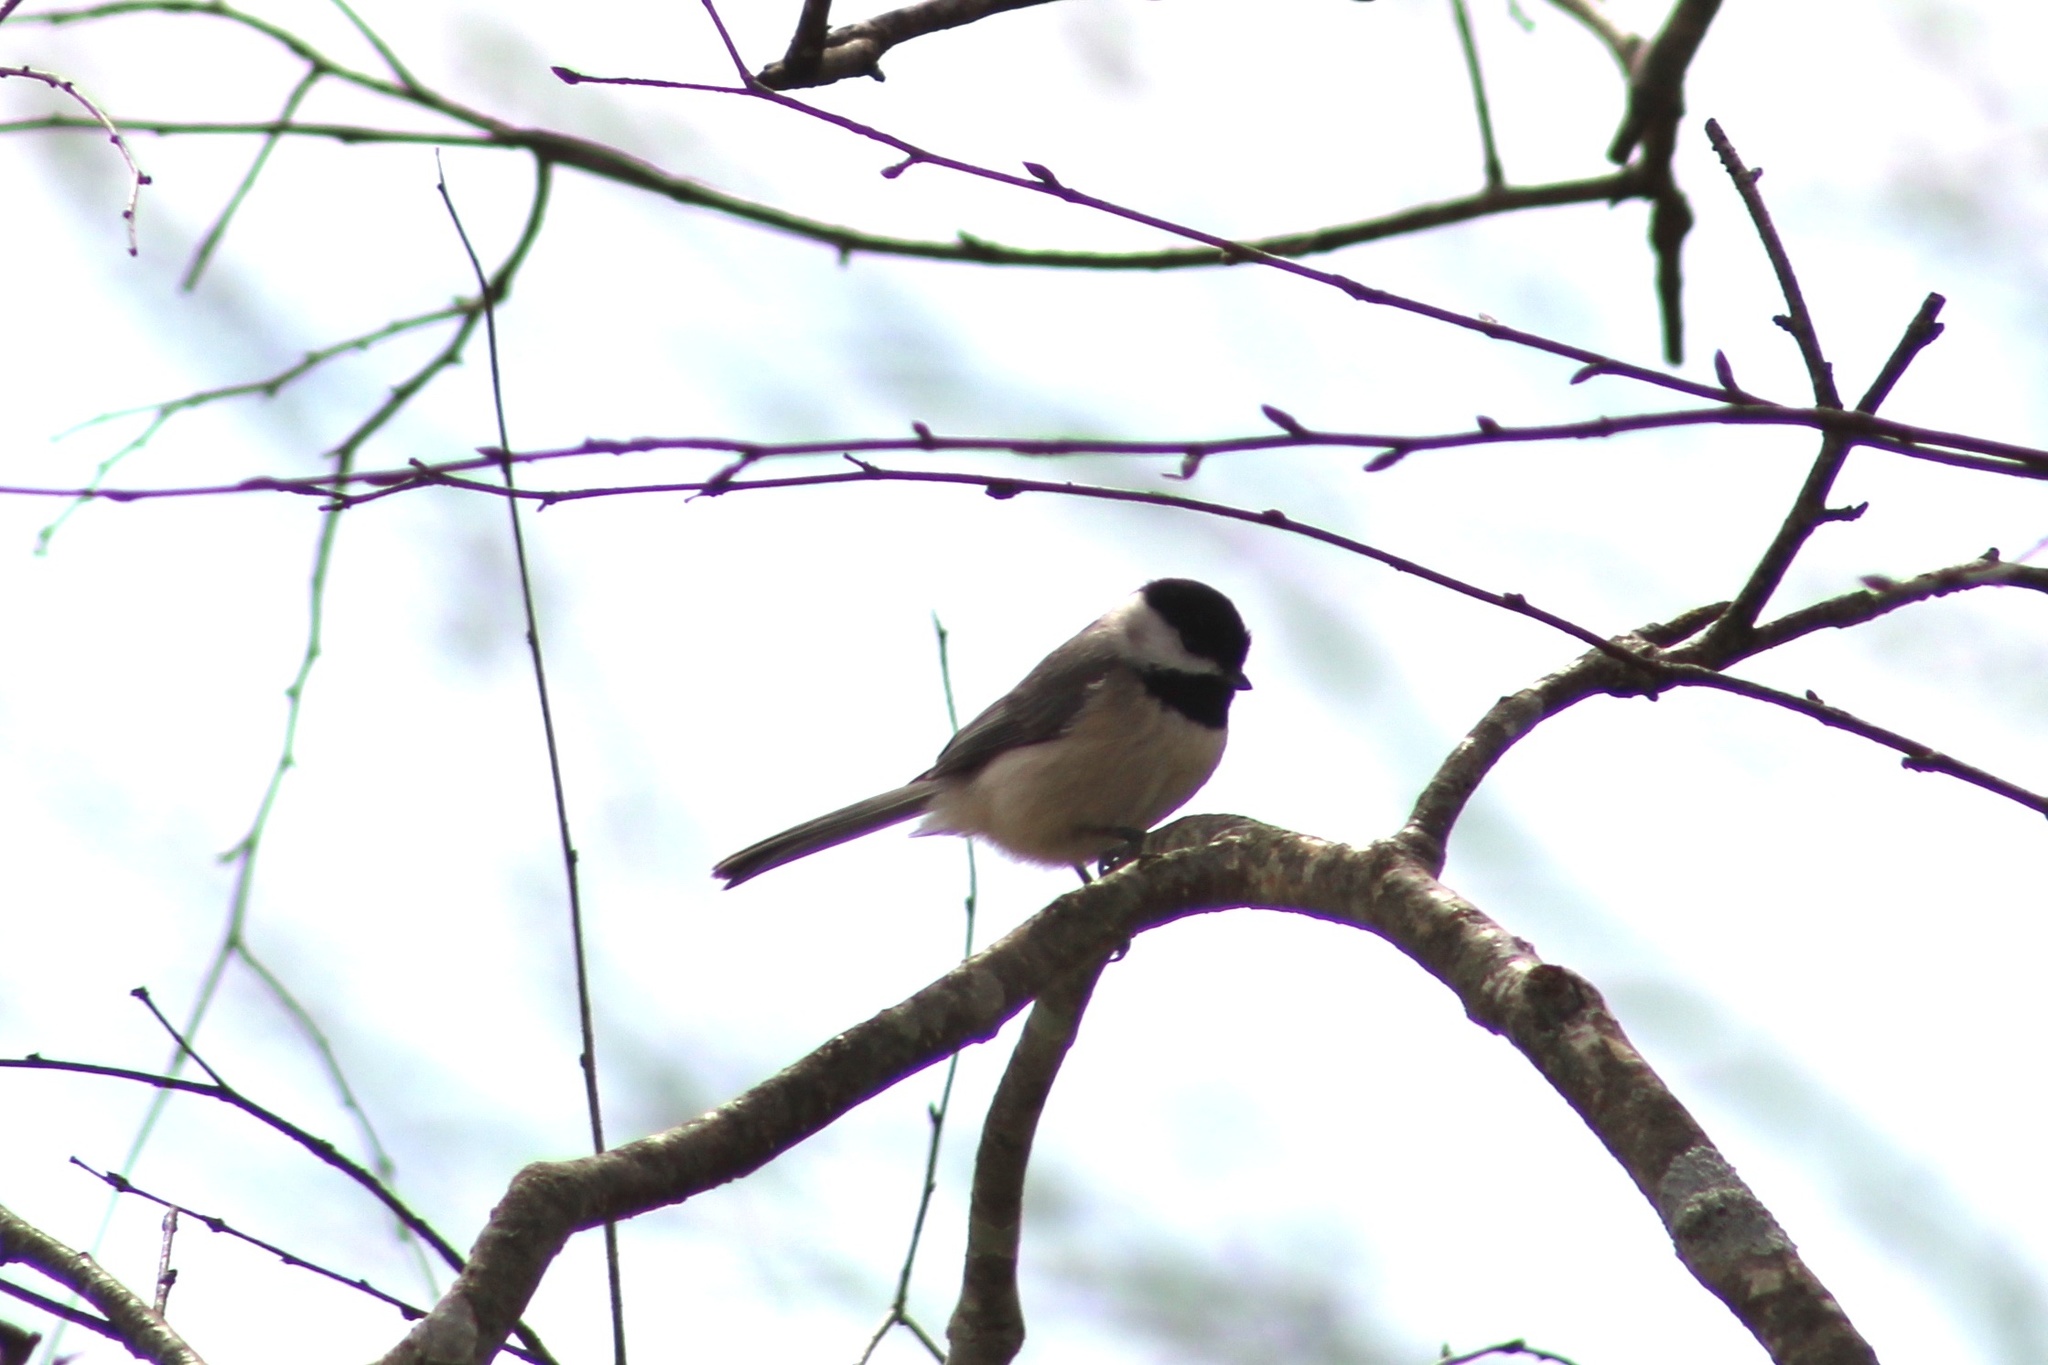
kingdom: Animalia
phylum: Chordata
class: Aves
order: Passeriformes
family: Paridae
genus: Poecile
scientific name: Poecile carolinensis
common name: Carolina chickadee
